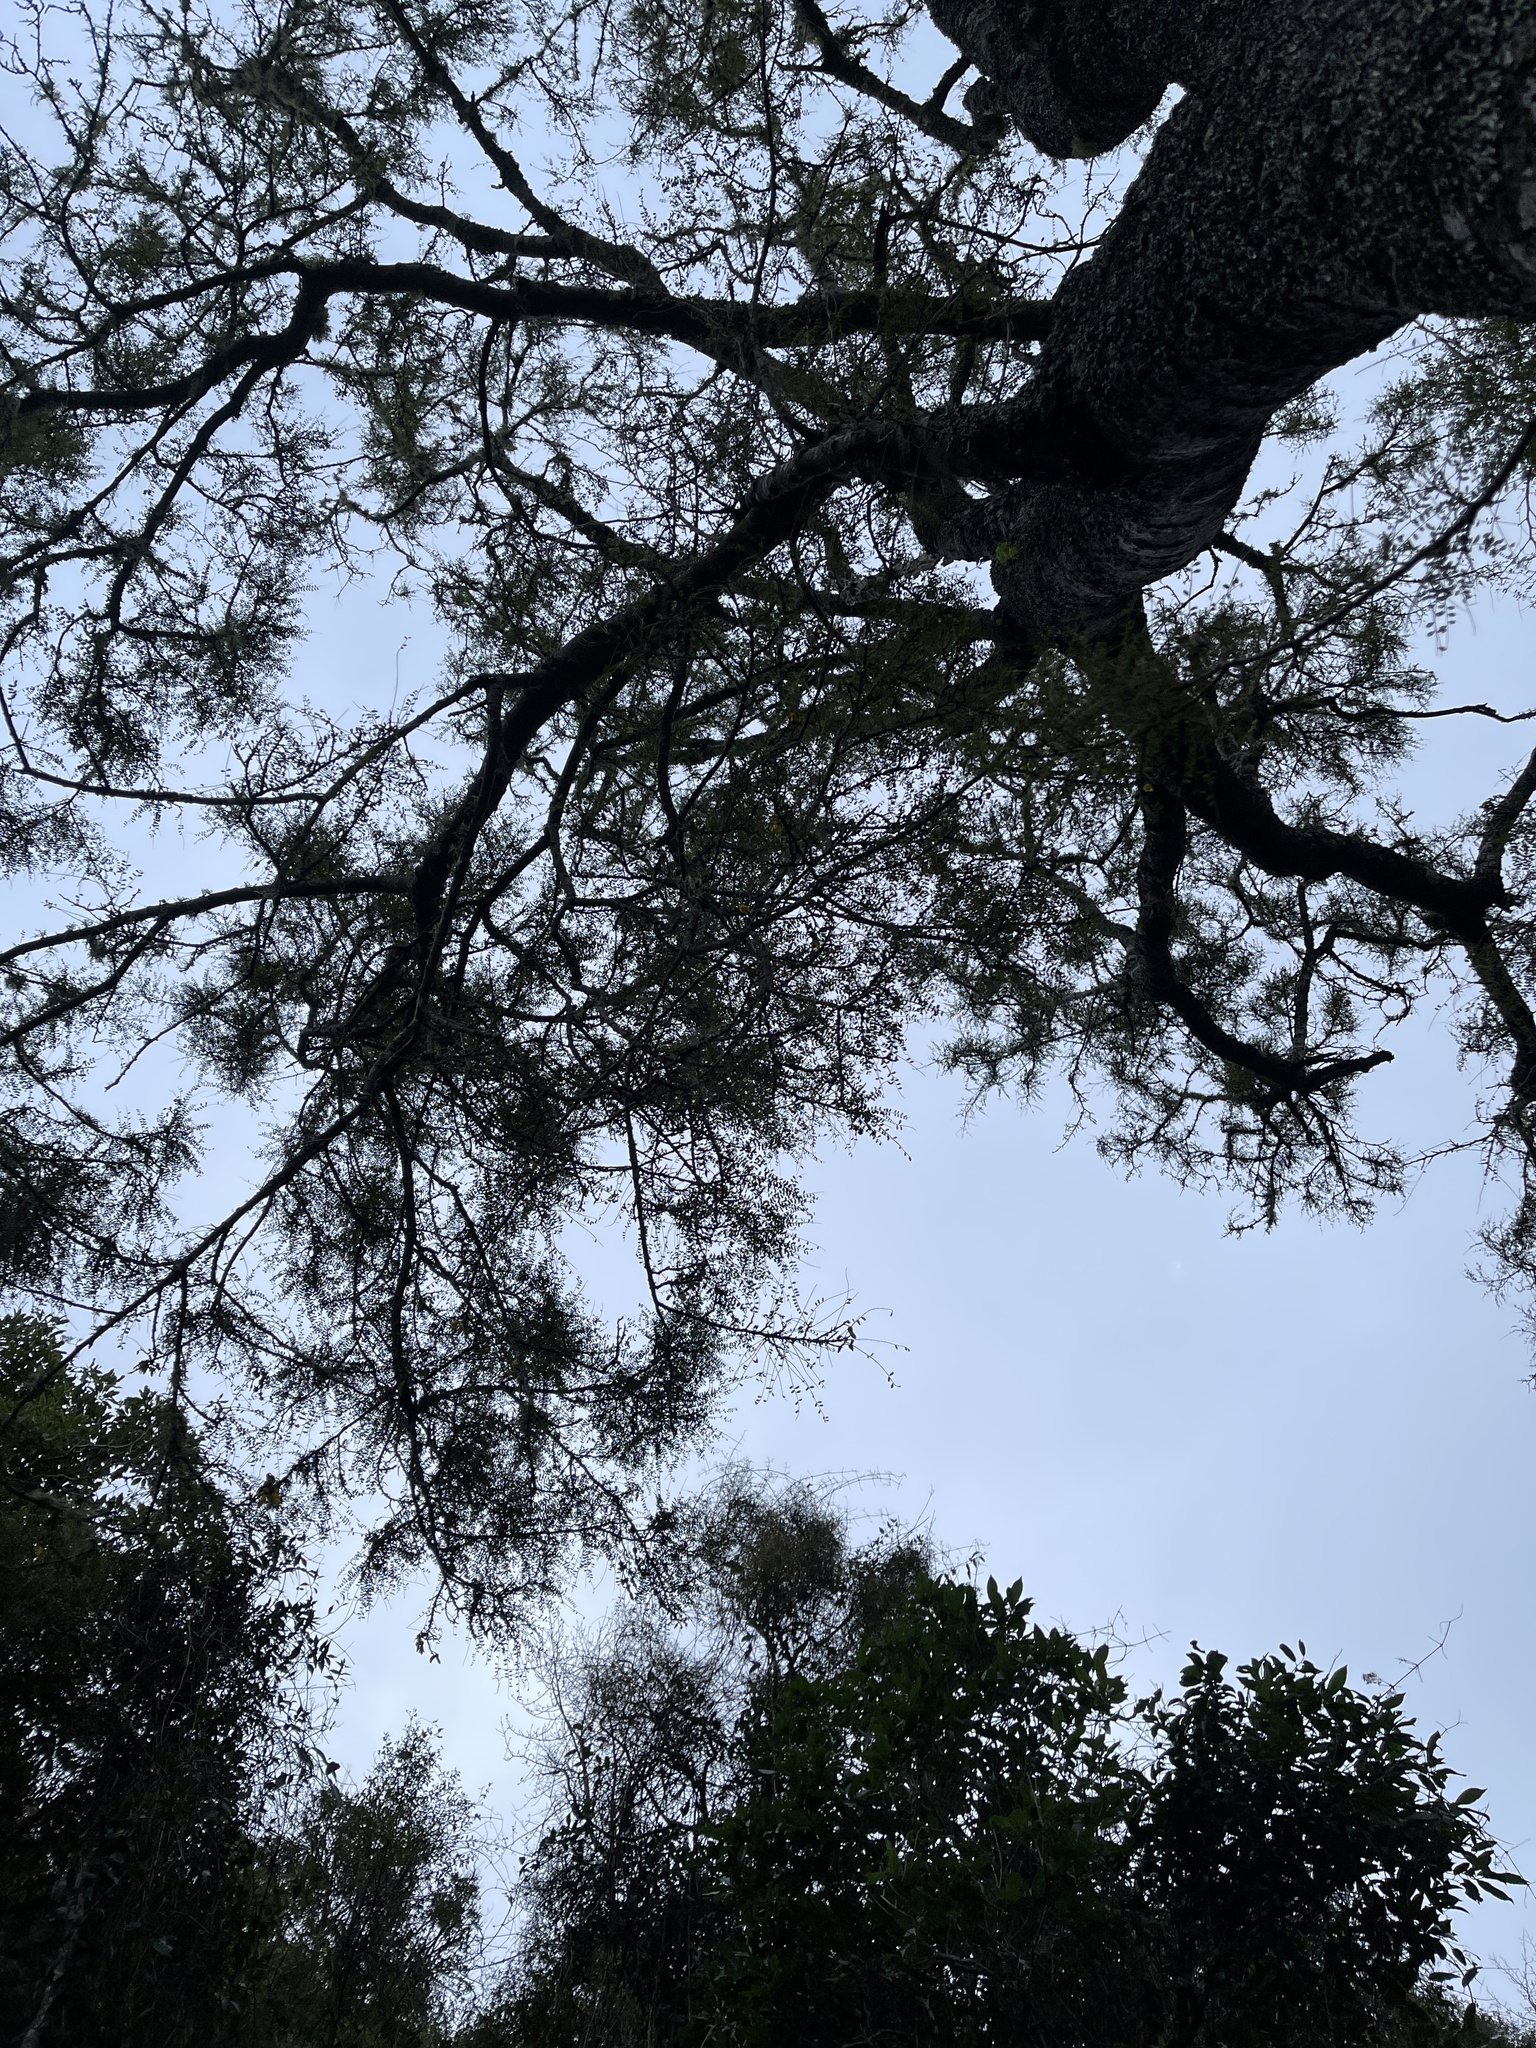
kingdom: Plantae
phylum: Tracheophyta
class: Magnoliopsida
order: Fabales
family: Fabaceae
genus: Sophora
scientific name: Sophora microphylla
